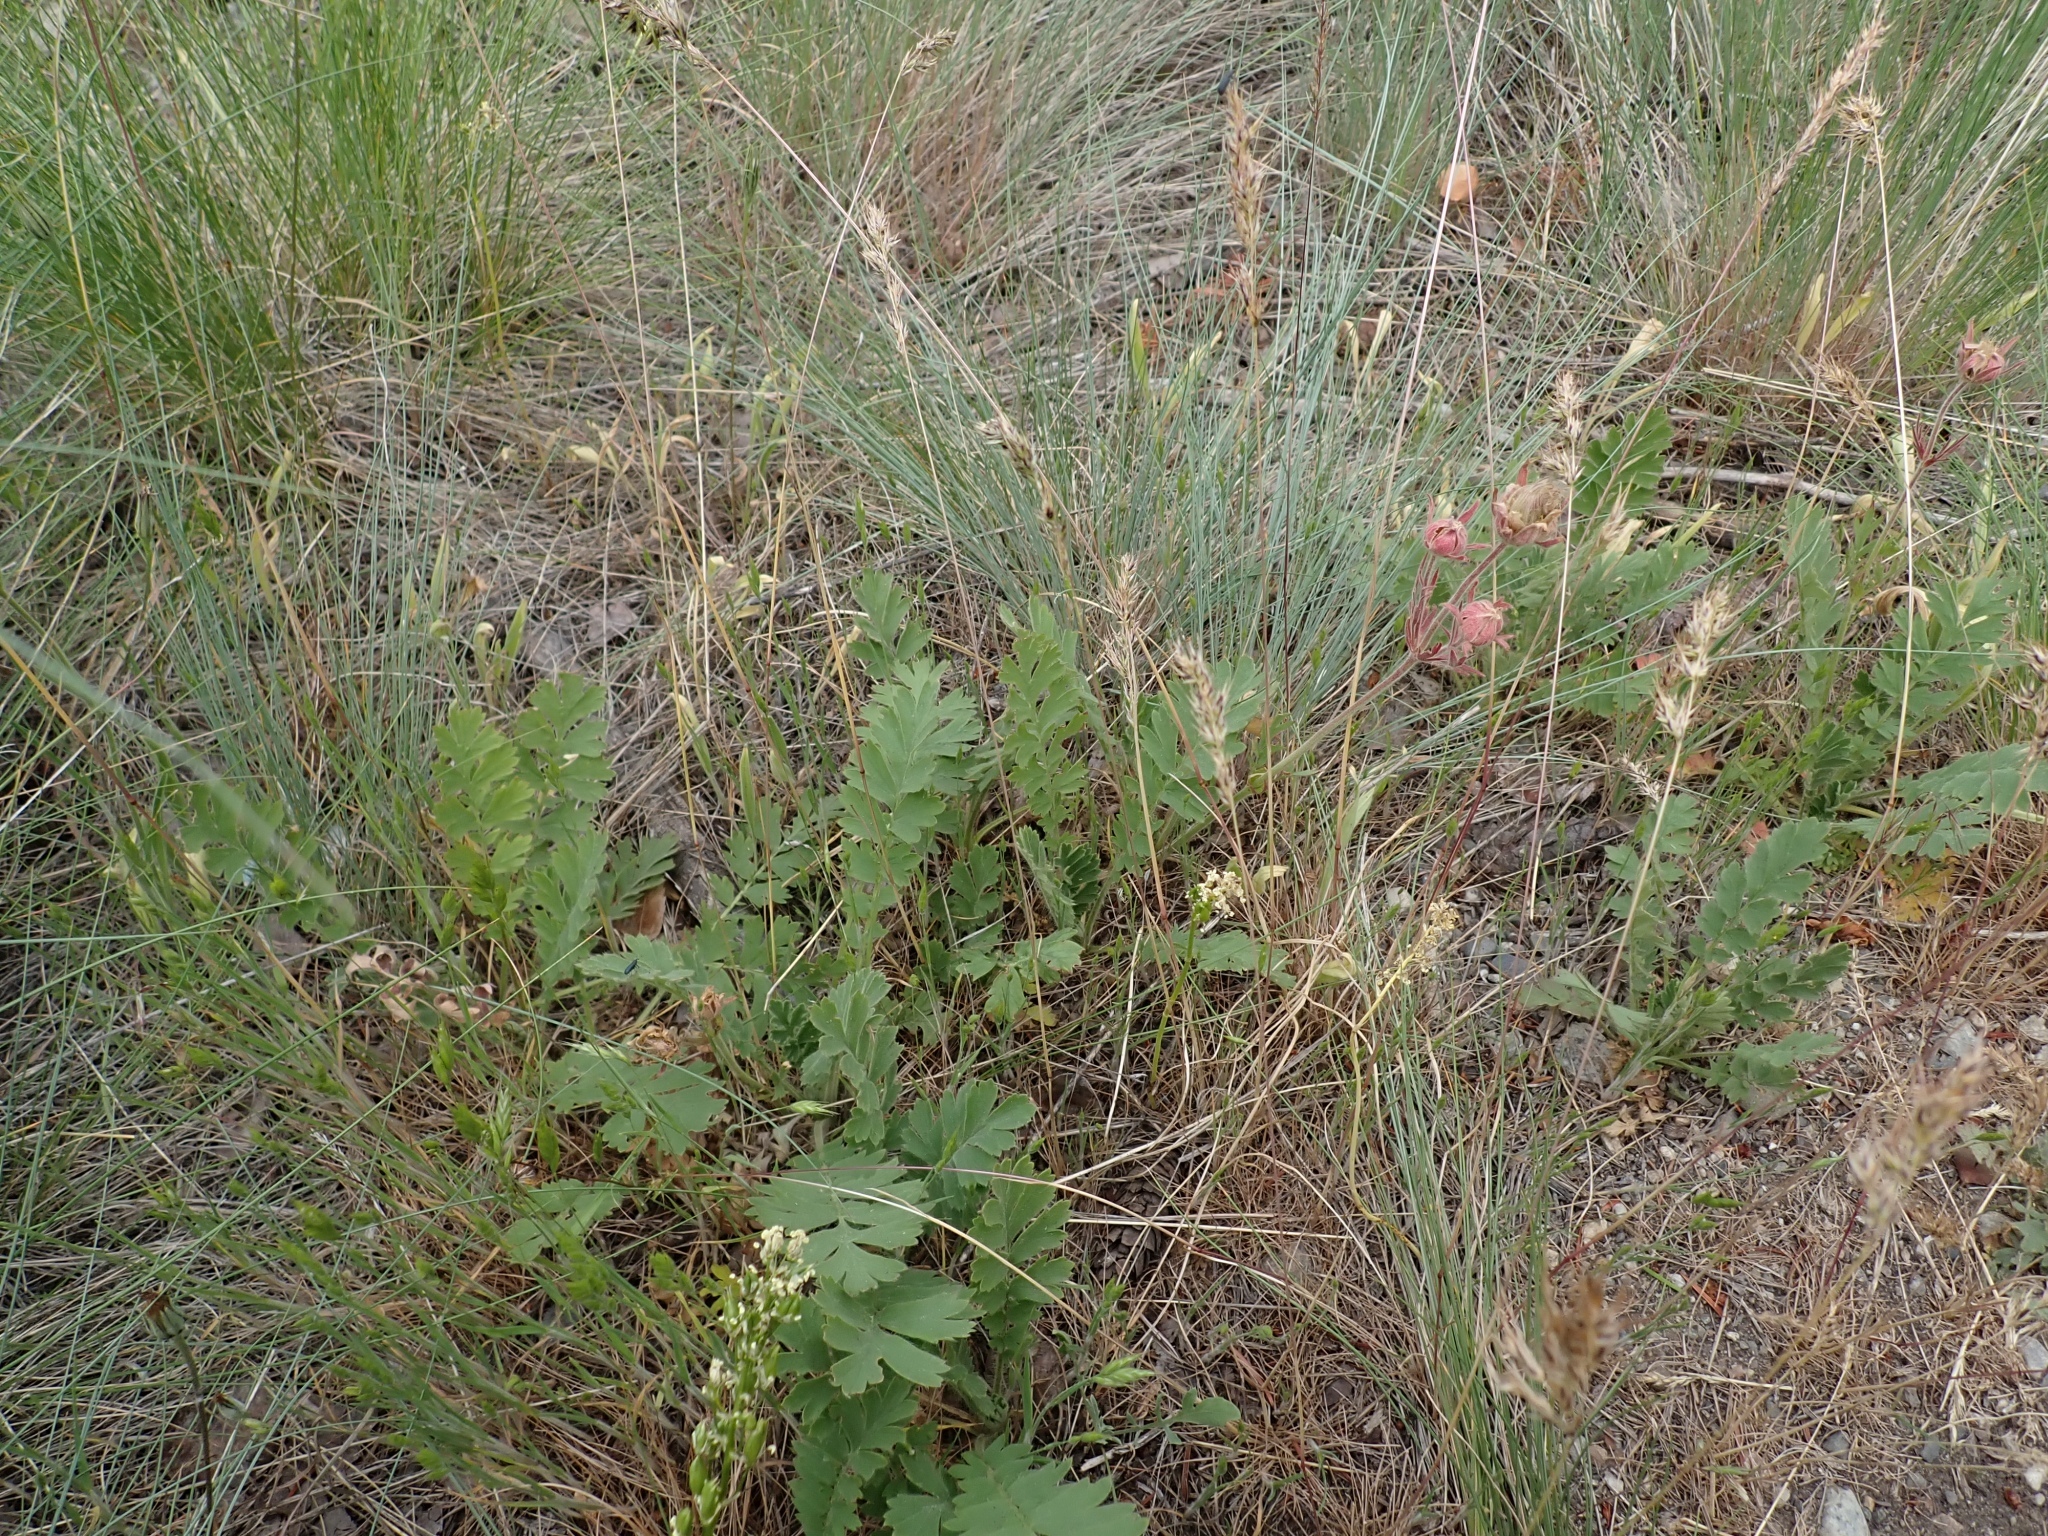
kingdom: Plantae
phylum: Tracheophyta
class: Magnoliopsida
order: Rosales
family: Rosaceae
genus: Geum
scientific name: Geum triflorum
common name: Old man's whiskers
